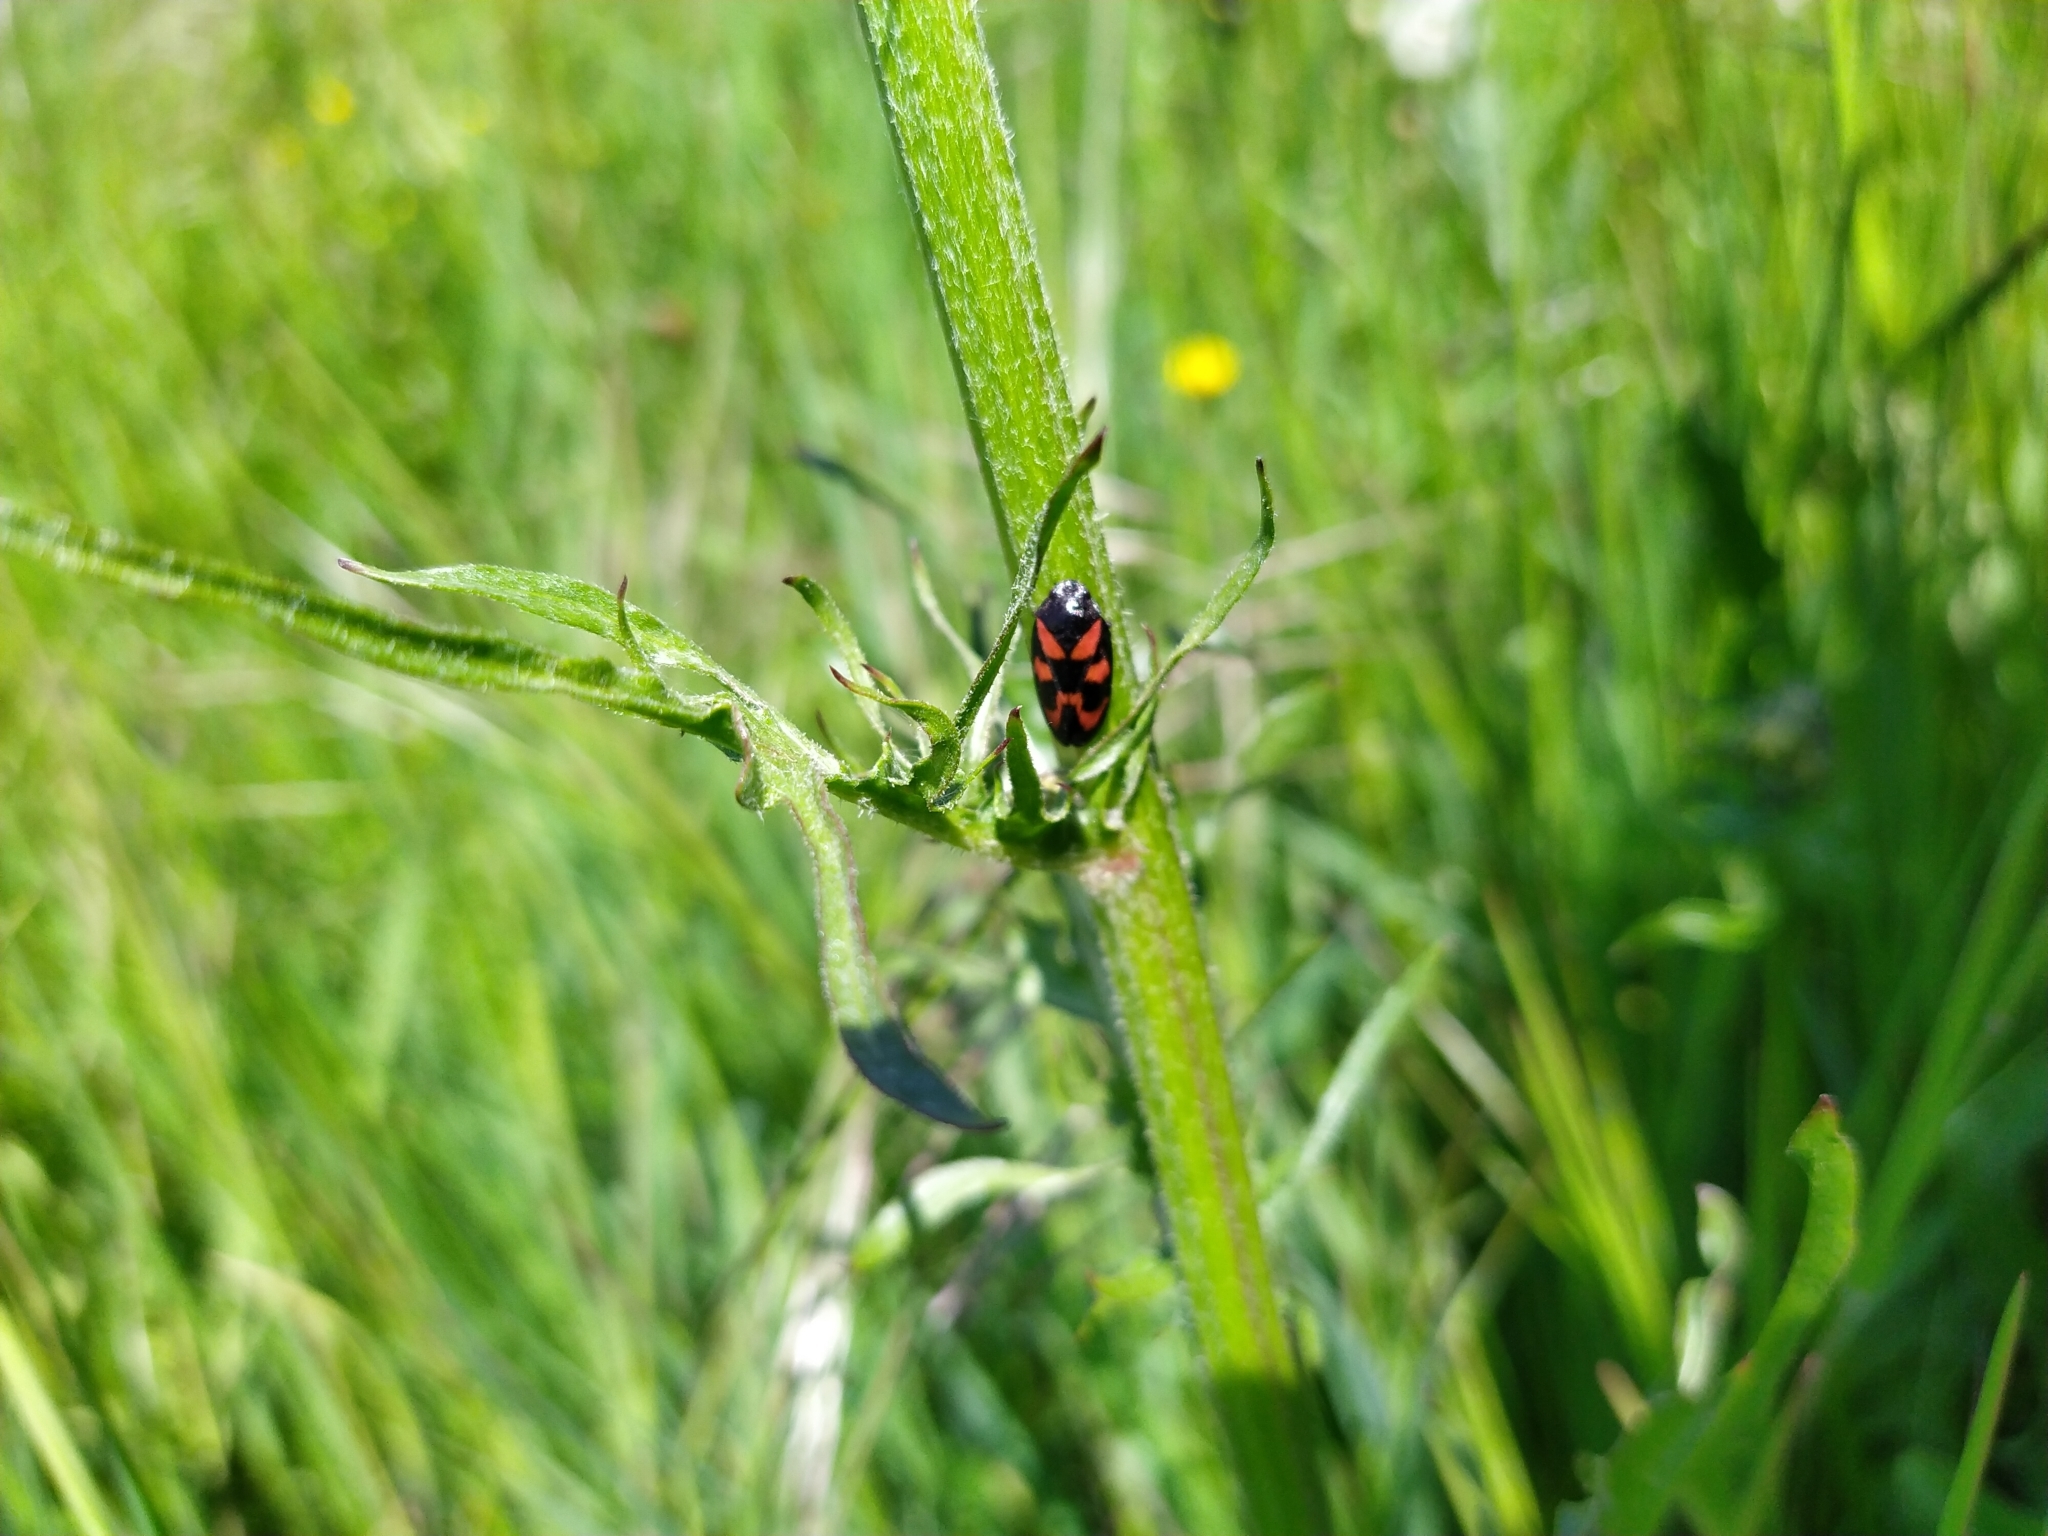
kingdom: Animalia
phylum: Arthropoda
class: Insecta
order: Hemiptera
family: Cercopidae
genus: Cercopis
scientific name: Cercopis vulnerata
